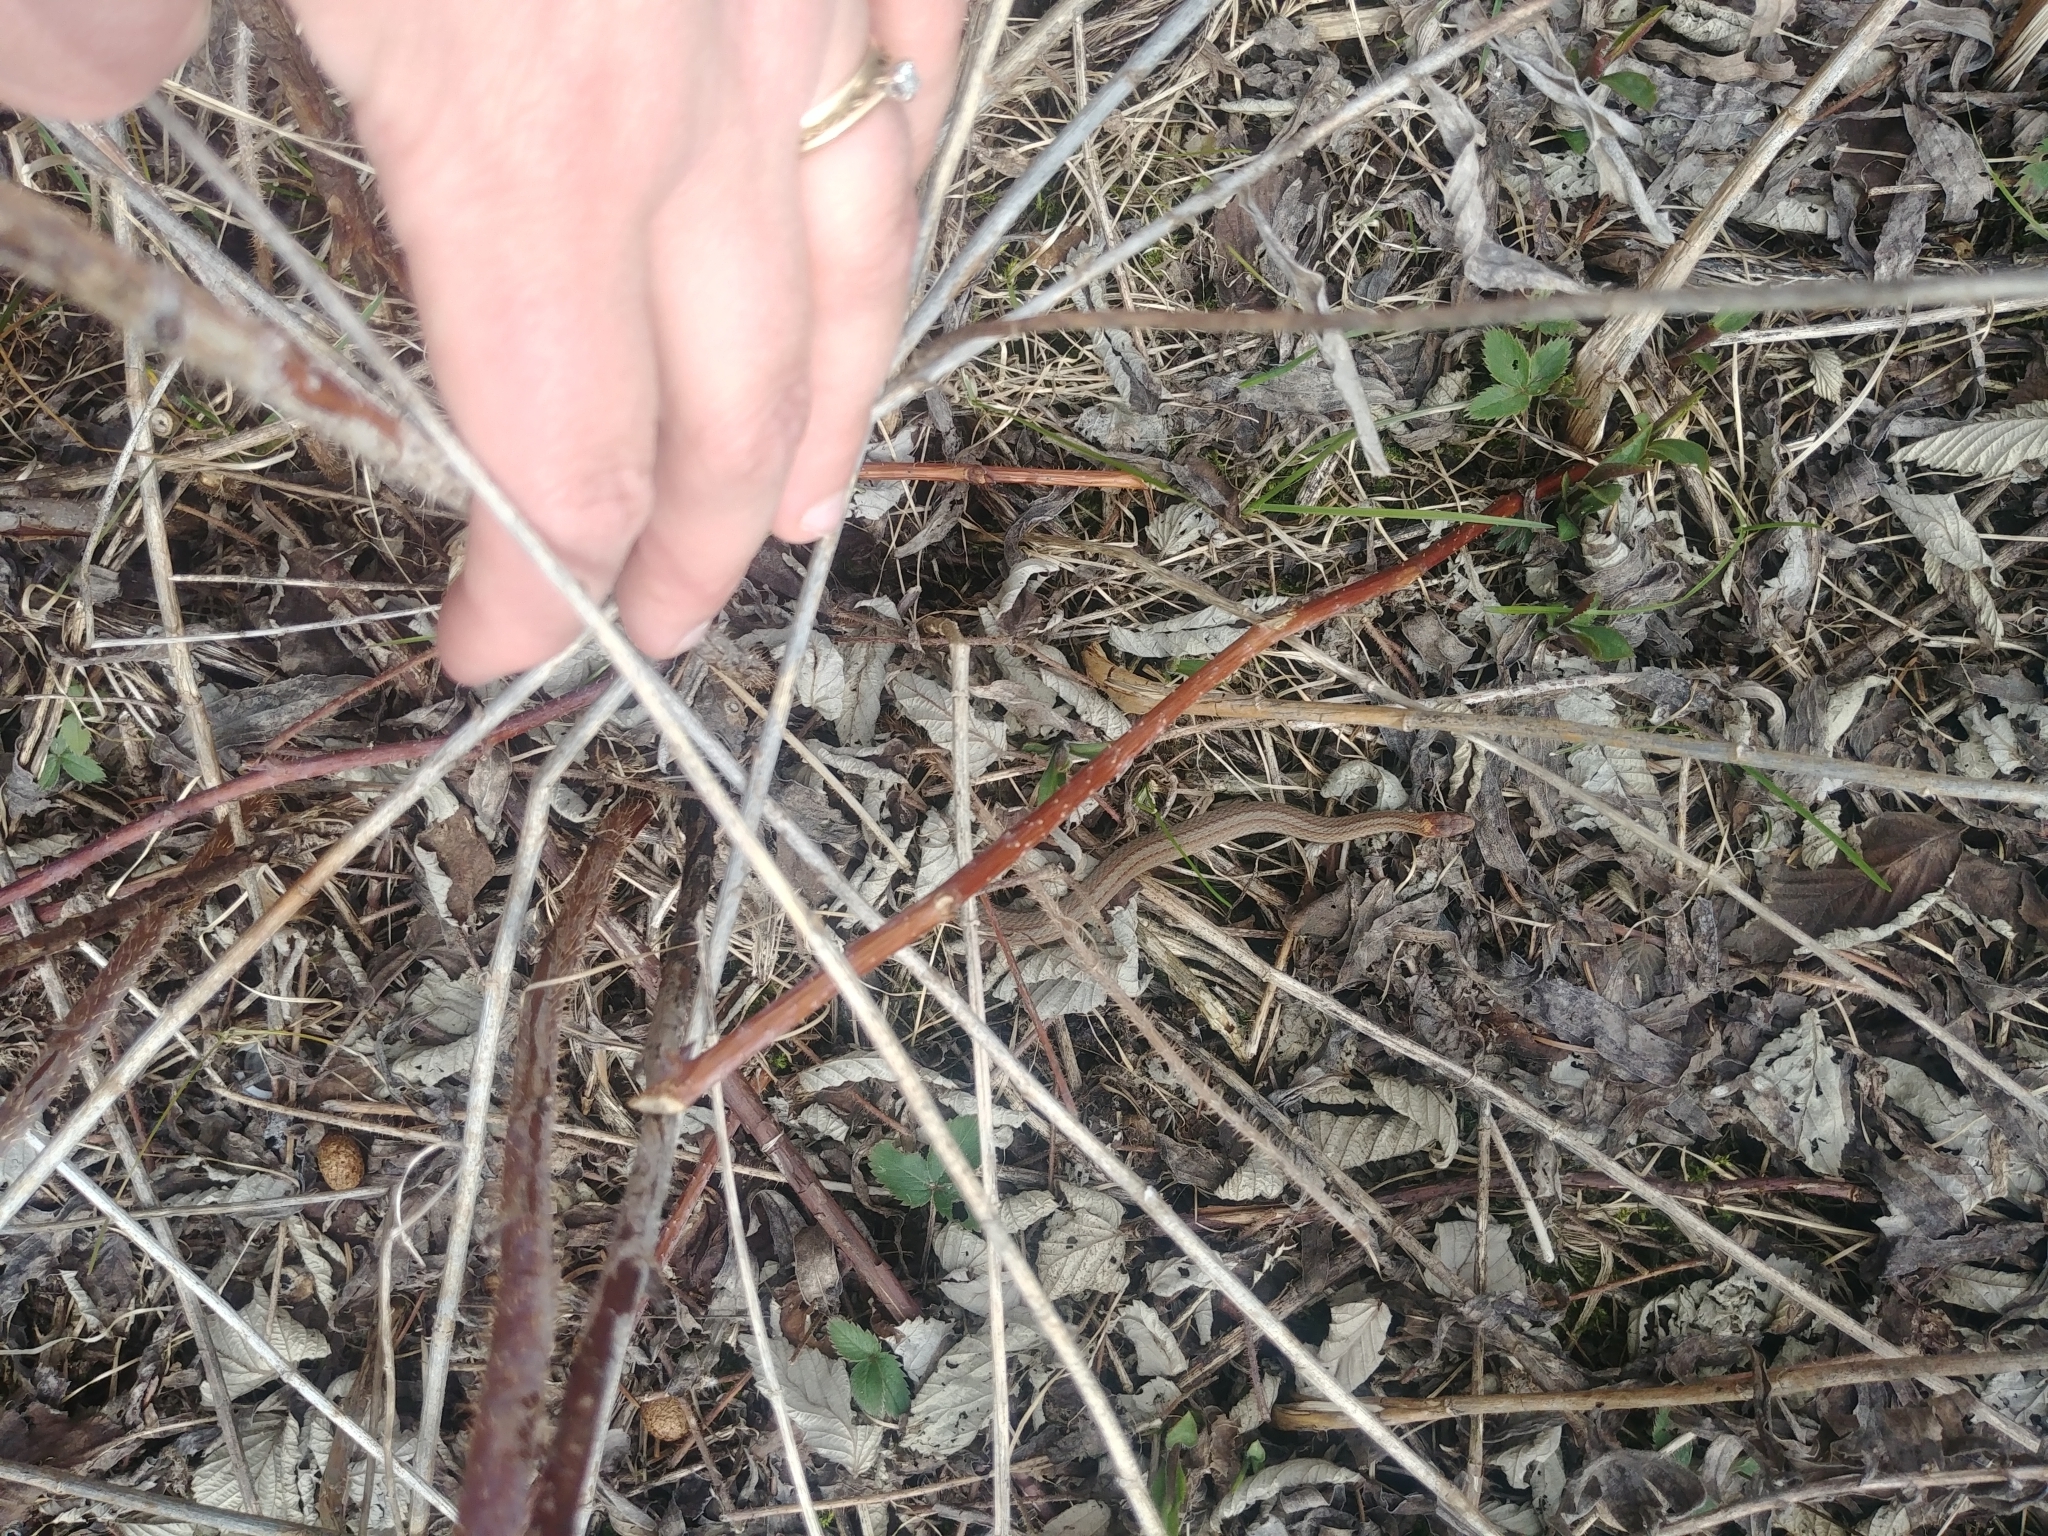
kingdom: Animalia
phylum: Chordata
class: Squamata
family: Colubridae
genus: Storeria
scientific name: Storeria occipitomaculata
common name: Redbelly snake
